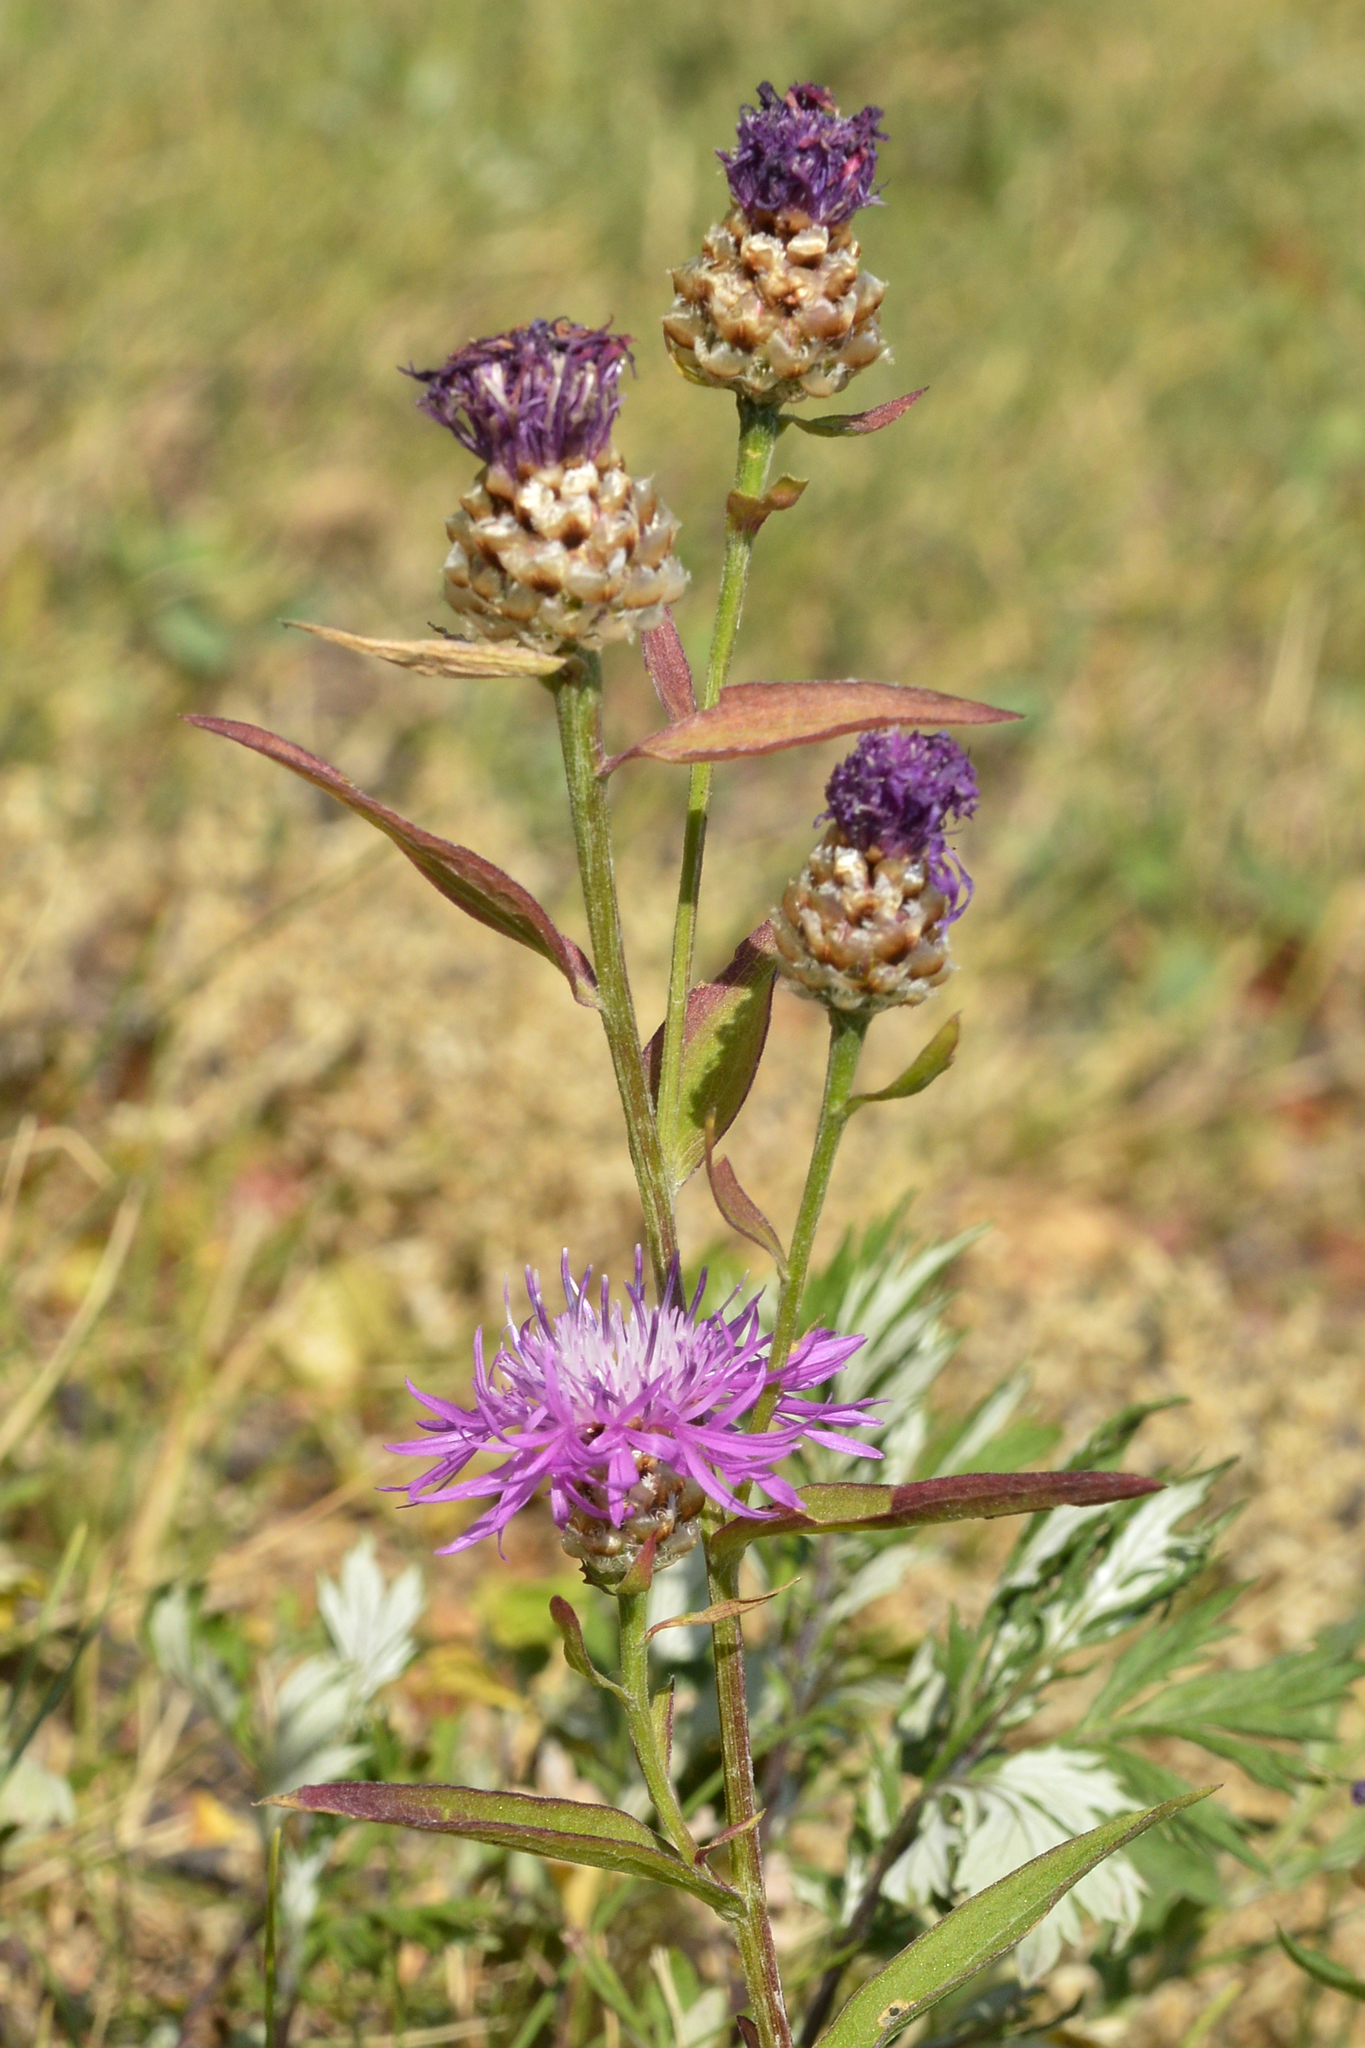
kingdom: Plantae
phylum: Tracheophyta
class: Magnoliopsida
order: Asterales
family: Asteraceae
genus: Centaurea
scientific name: Centaurea jacea
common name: Brown knapweed
